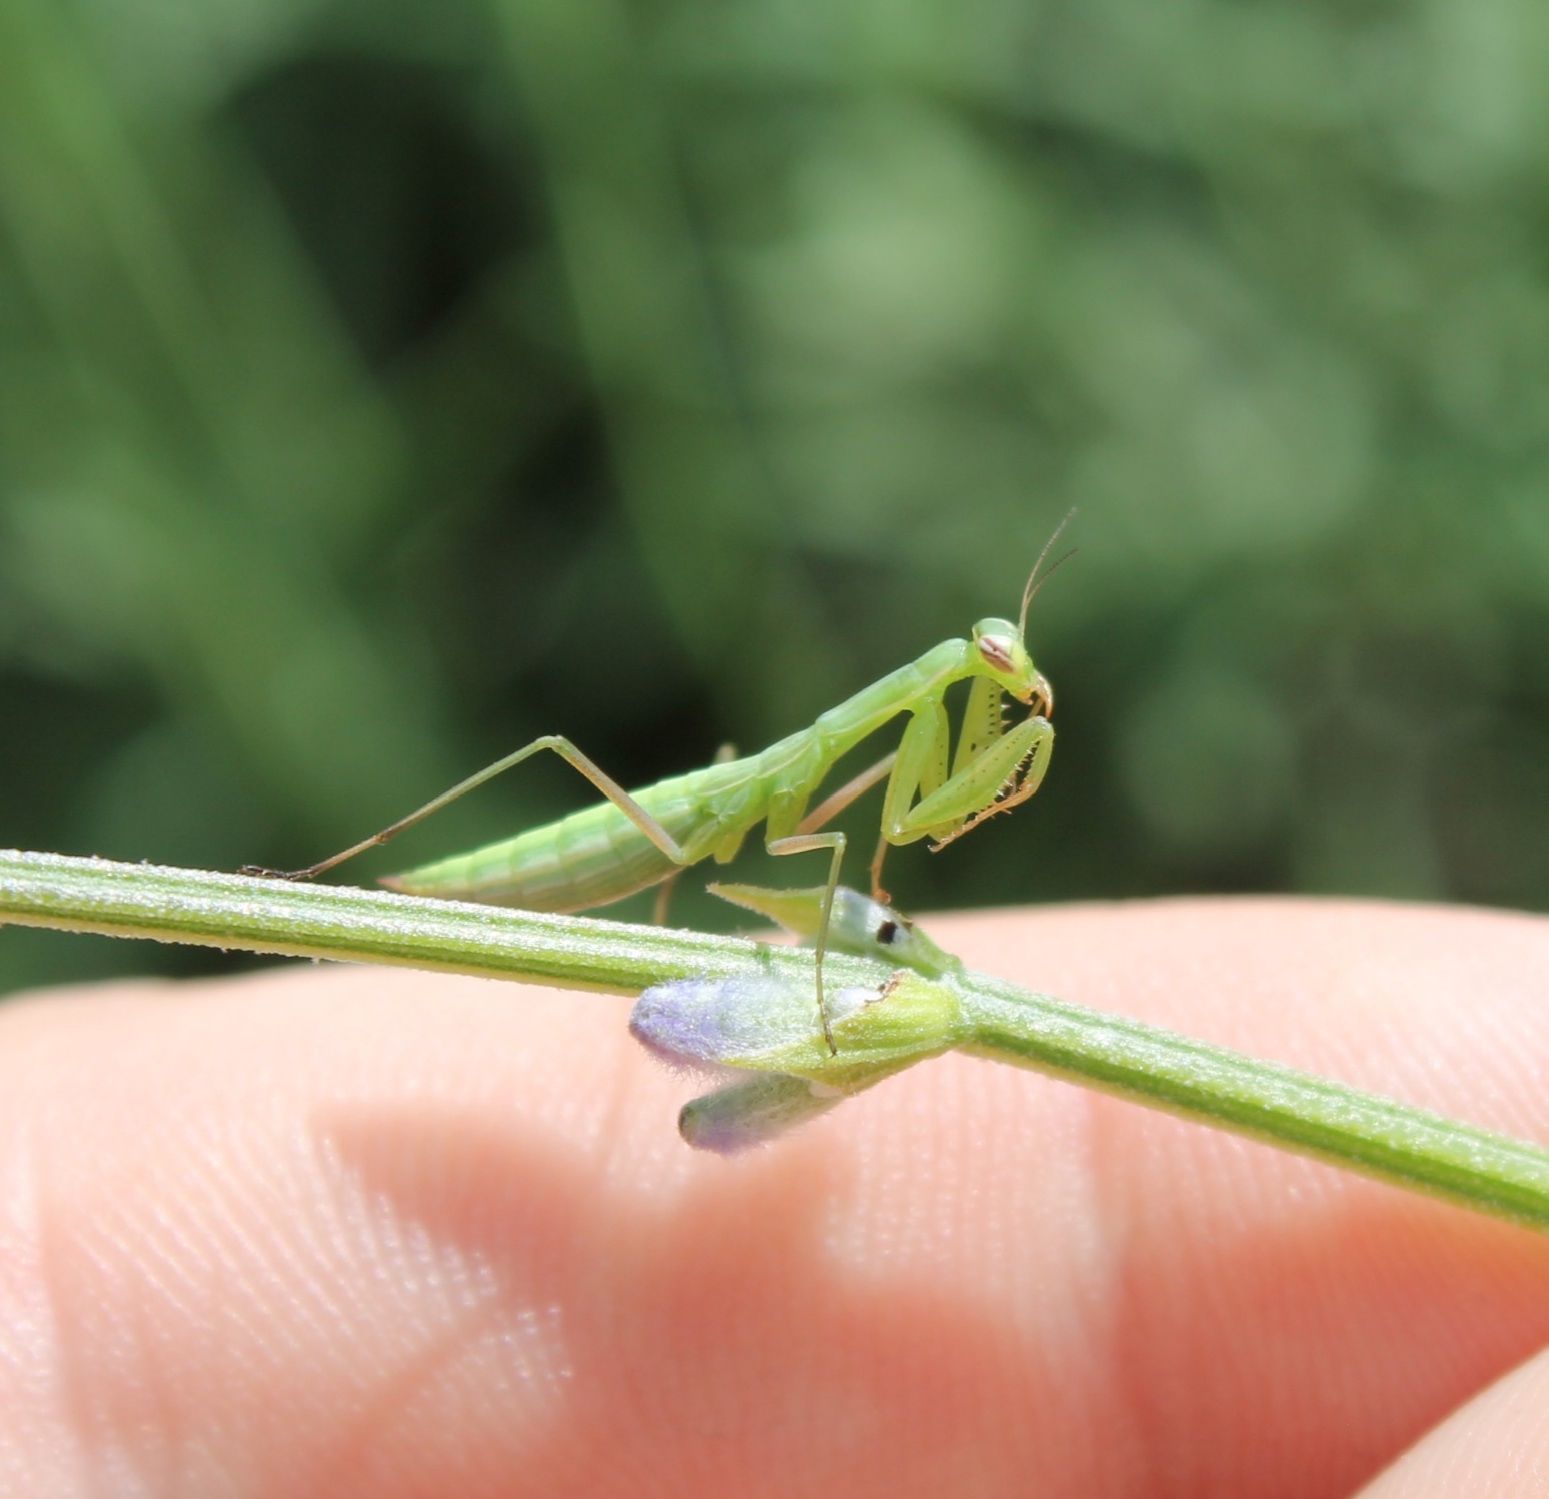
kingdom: Animalia
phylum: Arthropoda
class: Insecta
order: Mantodea
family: Mantidae
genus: Mantis
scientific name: Mantis religiosa
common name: Praying mantis
